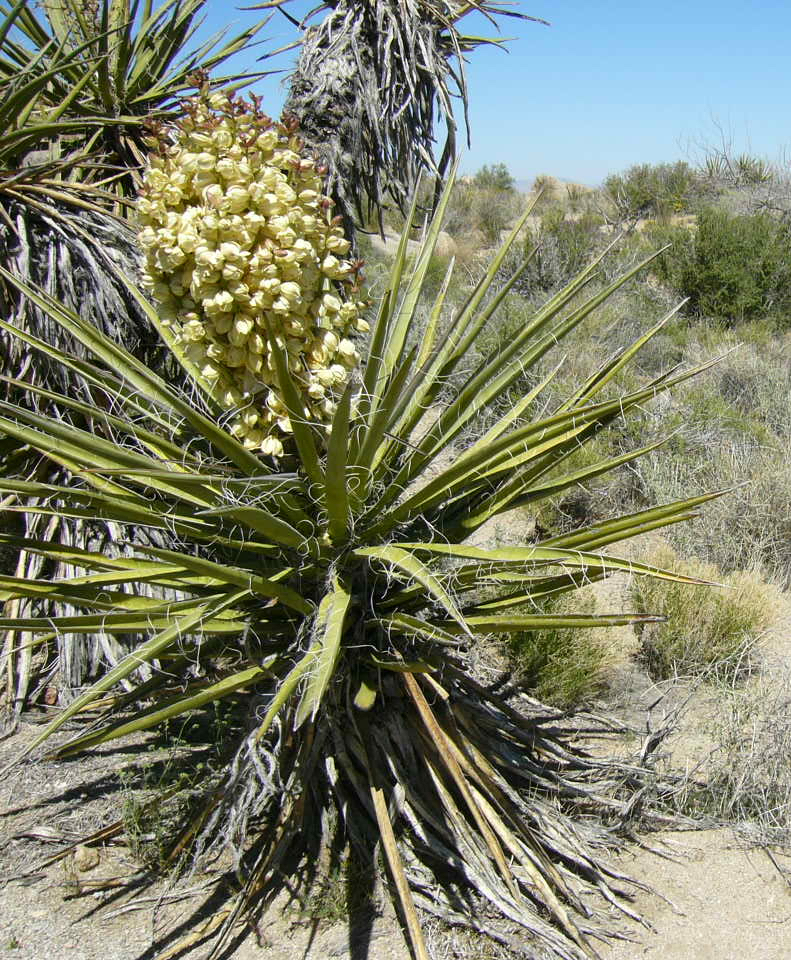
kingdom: Plantae
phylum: Tracheophyta
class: Liliopsida
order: Asparagales
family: Asparagaceae
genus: Yucca
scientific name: Yucca schidigera
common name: Mojave yucca
